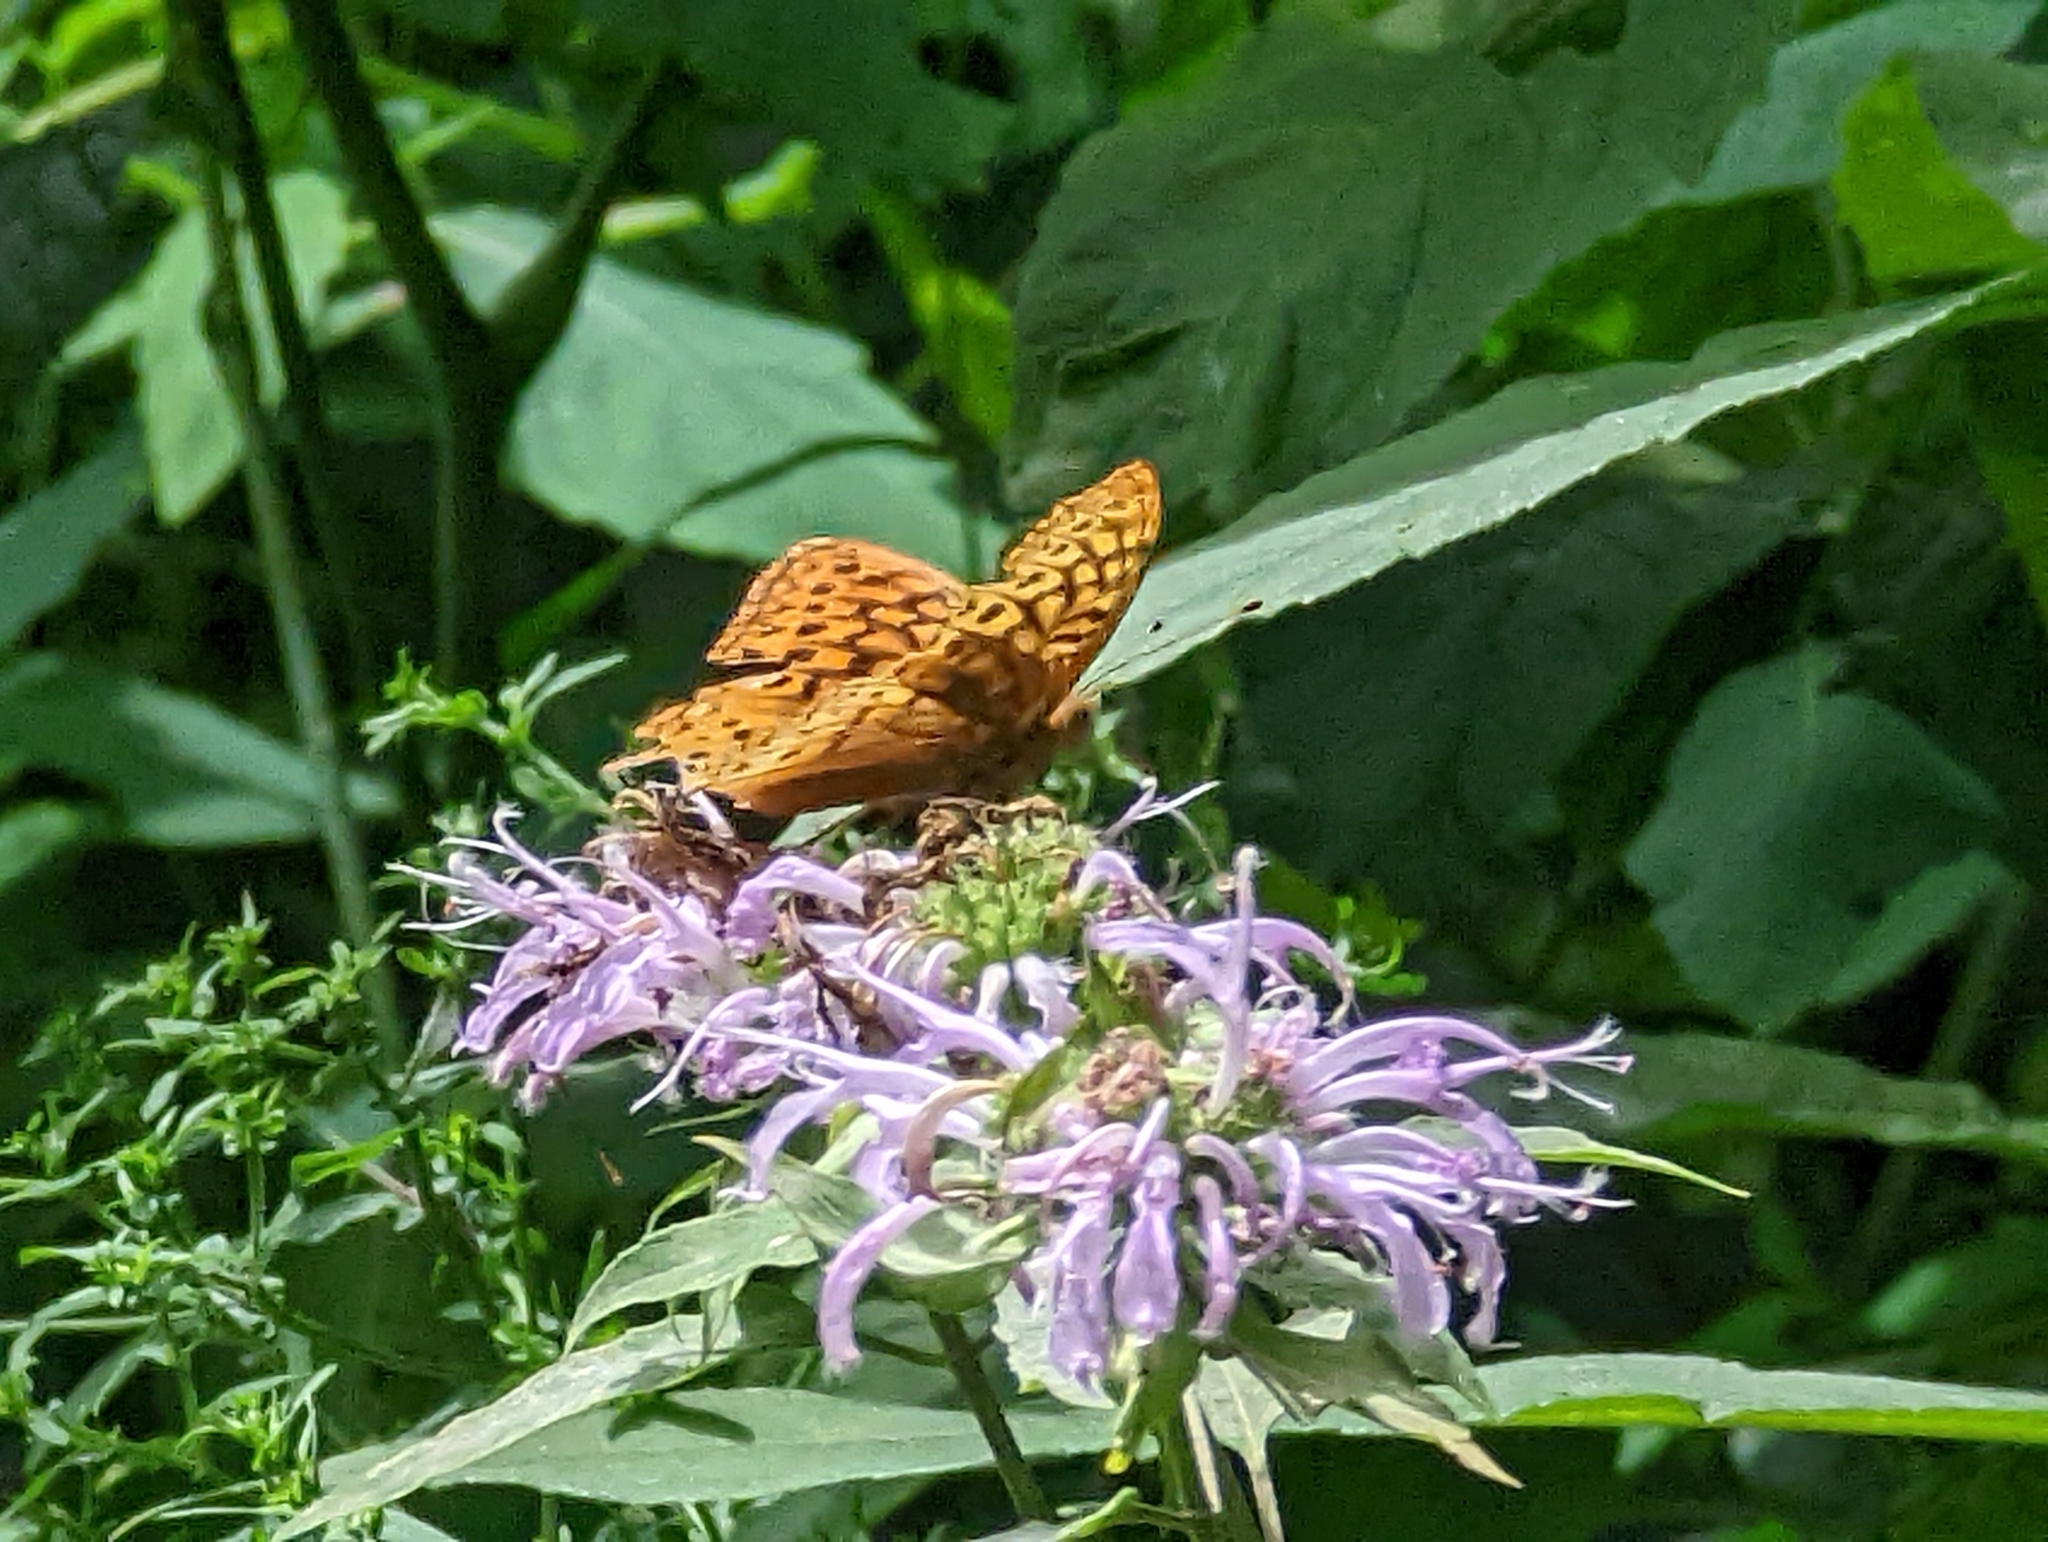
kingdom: Animalia
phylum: Arthropoda
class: Insecta
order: Lepidoptera
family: Nymphalidae
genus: Speyeria
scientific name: Speyeria cybele
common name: Great spangled fritillary
